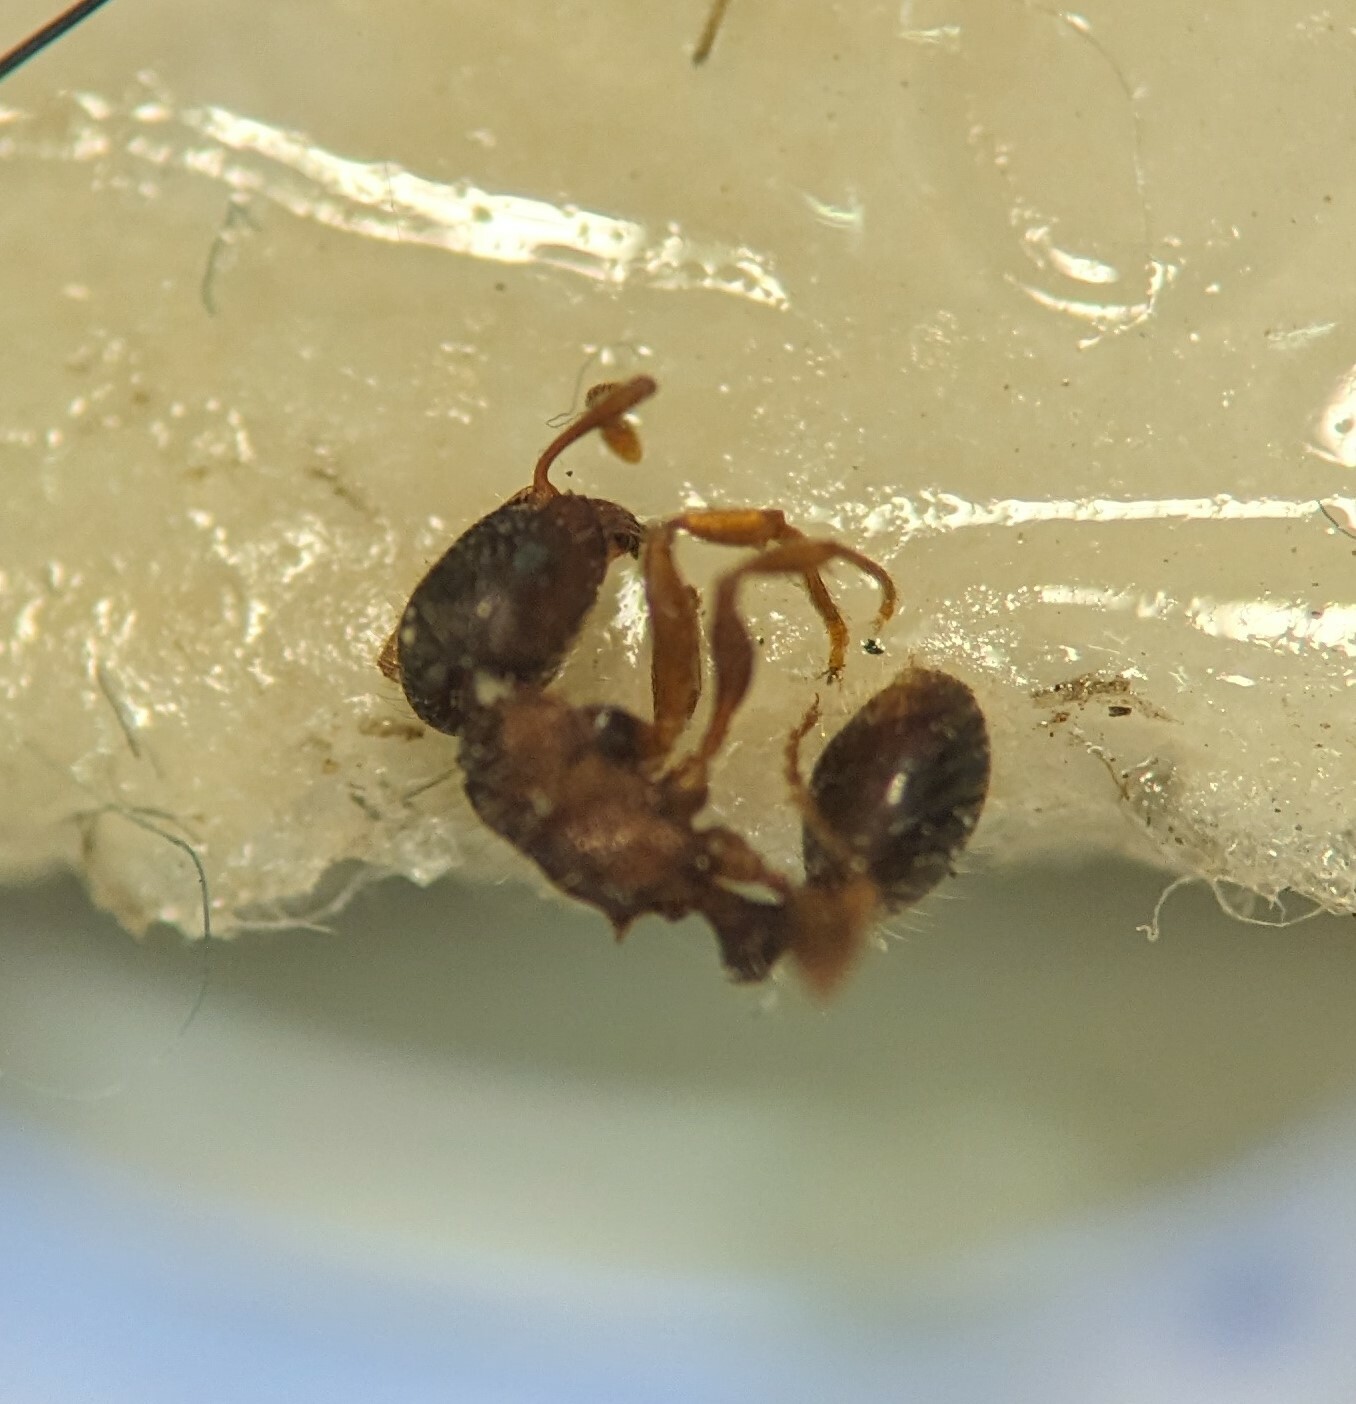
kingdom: Animalia
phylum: Arthropoda
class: Insecta
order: Hymenoptera
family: Formicidae
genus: Tetramorium
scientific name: Tetramorium immigrans
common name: Pavement ant
